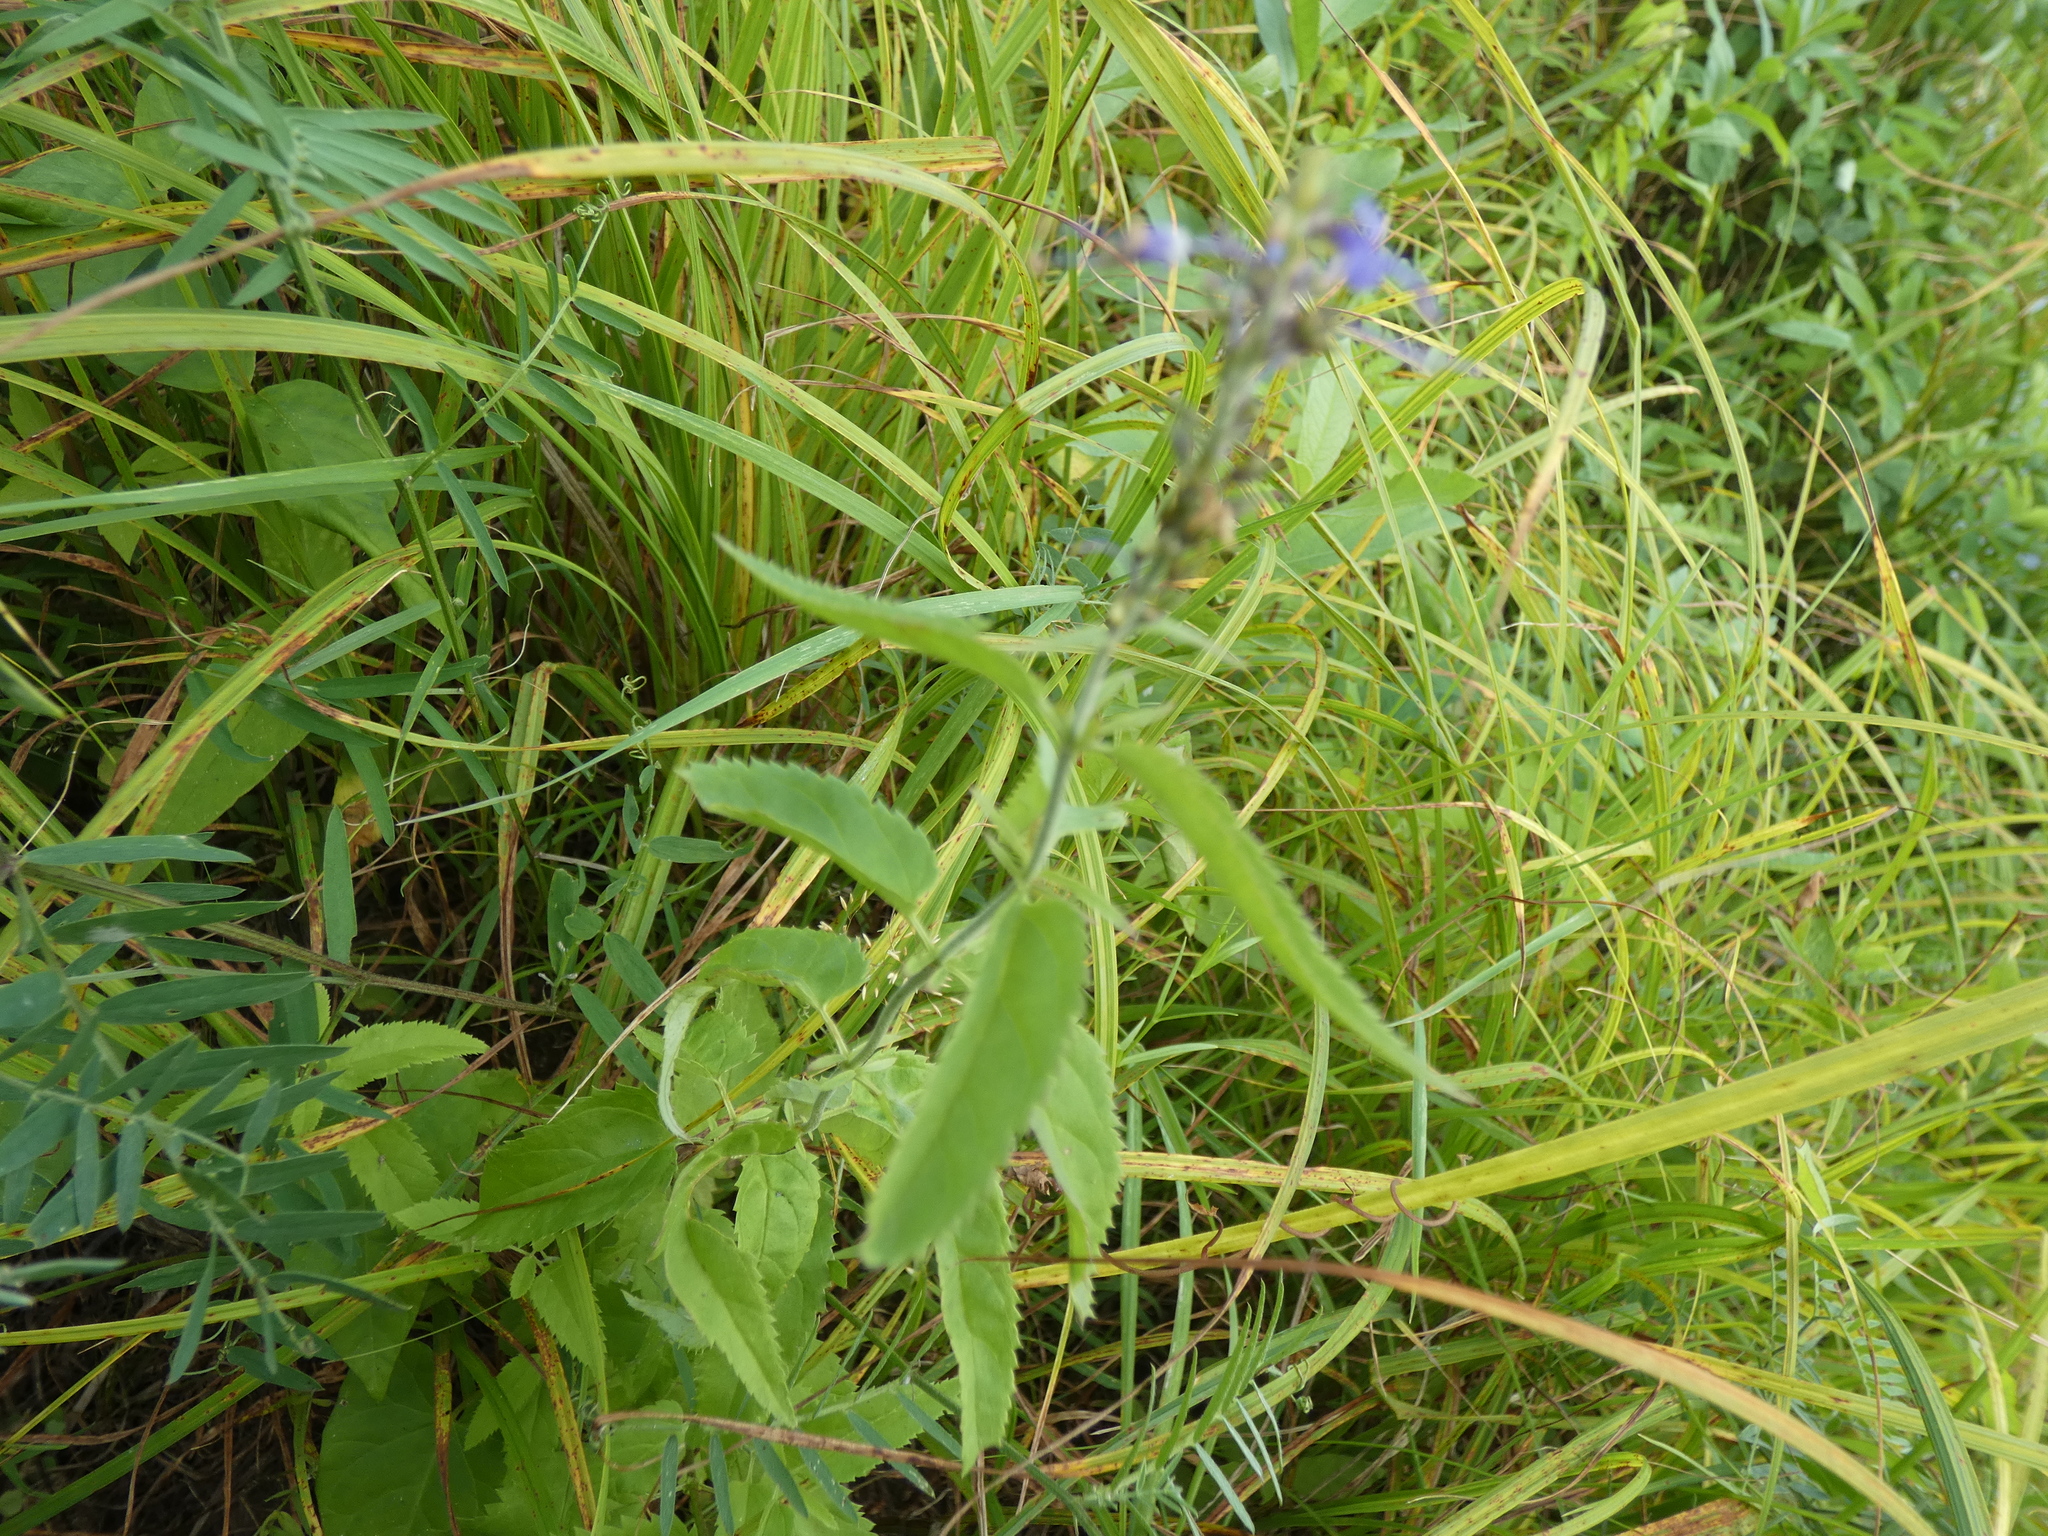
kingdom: Plantae
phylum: Tracheophyta
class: Magnoliopsida
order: Lamiales
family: Plantaginaceae
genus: Veronica
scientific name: Veronica longifolia
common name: Garden speedwell
